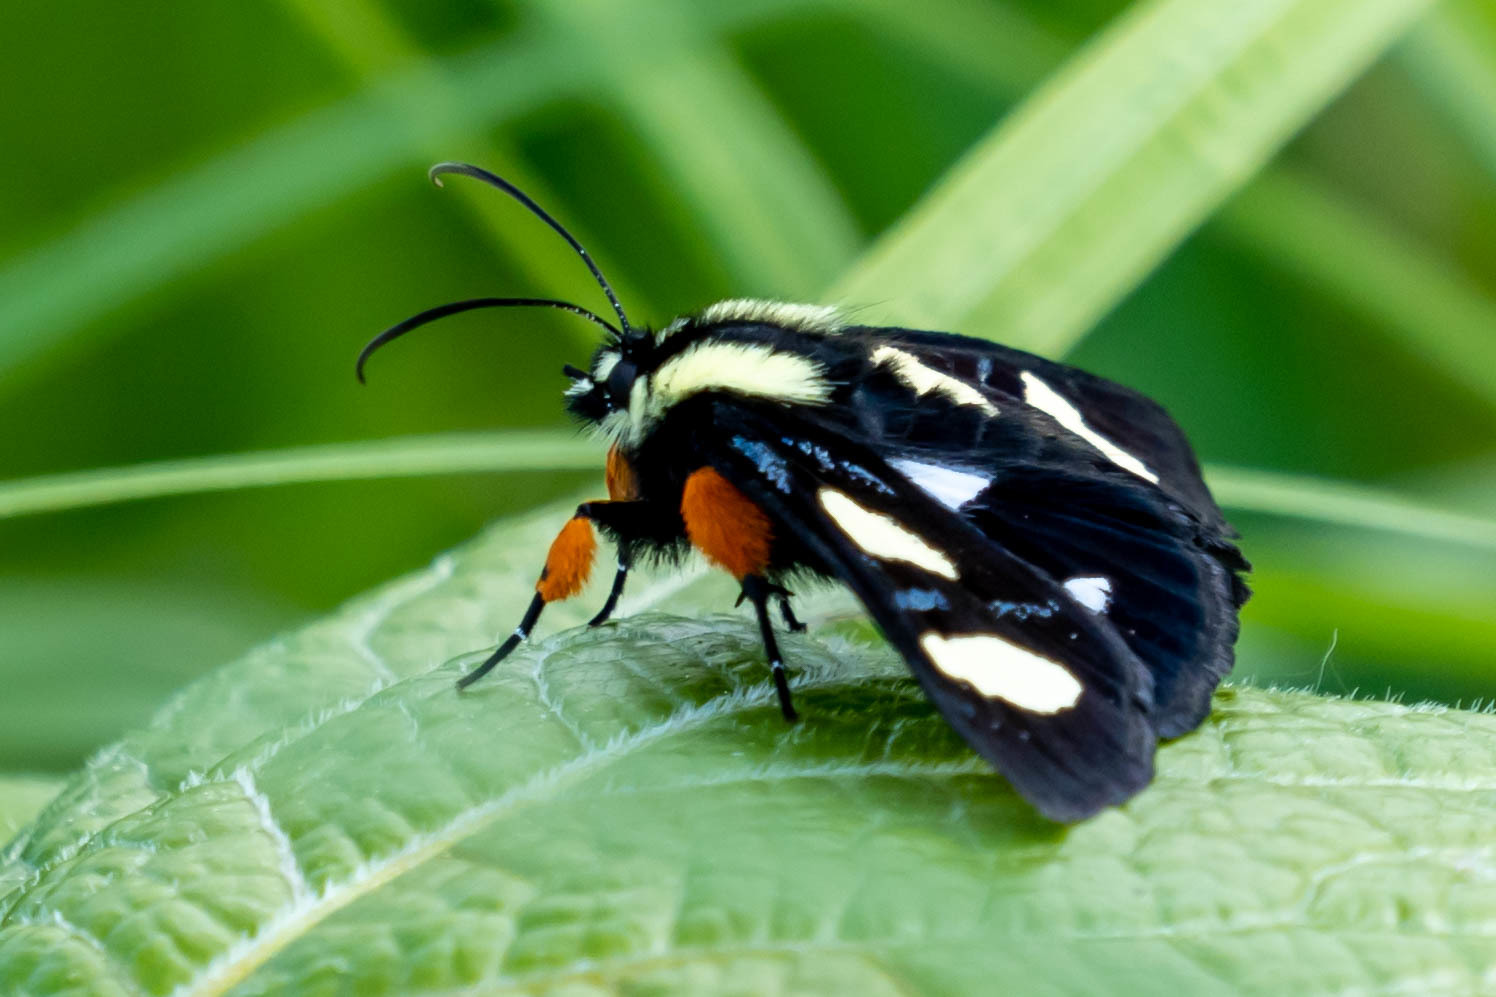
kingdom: Animalia
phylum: Arthropoda
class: Insecta
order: Lepidoptera
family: Noctuidae
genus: Alypia
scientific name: Alypia octomaculata
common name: Eight-spotted forester
